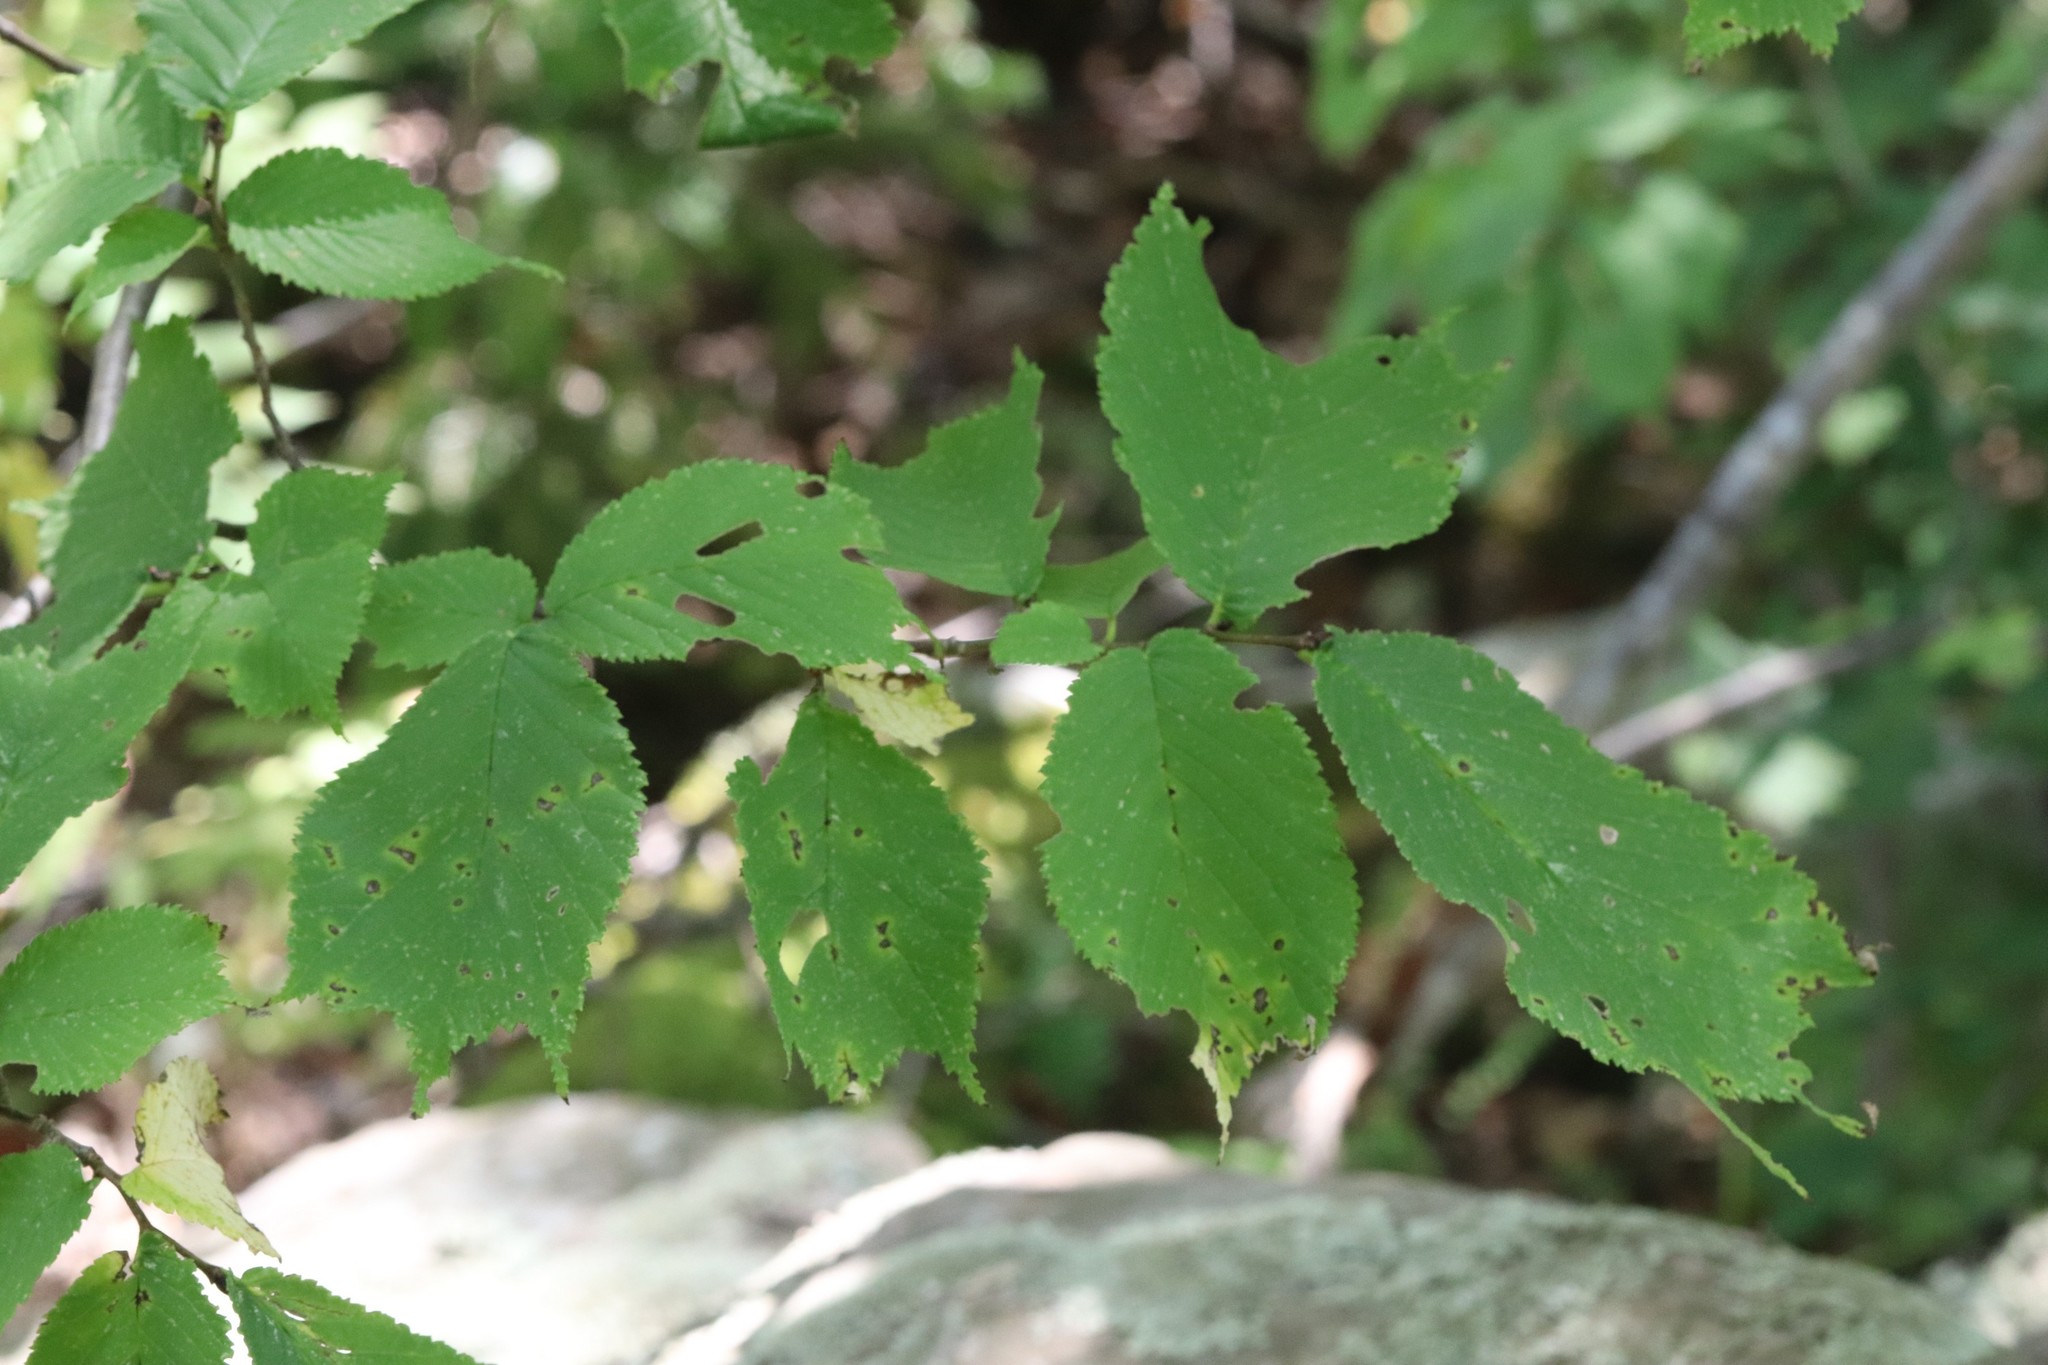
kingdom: Plantae
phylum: Tracheophyta
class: Magnoliopsida
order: Rosales
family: Ulmaceae
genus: Ulmus
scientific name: Ulmus laciniata
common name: Japanese elm
